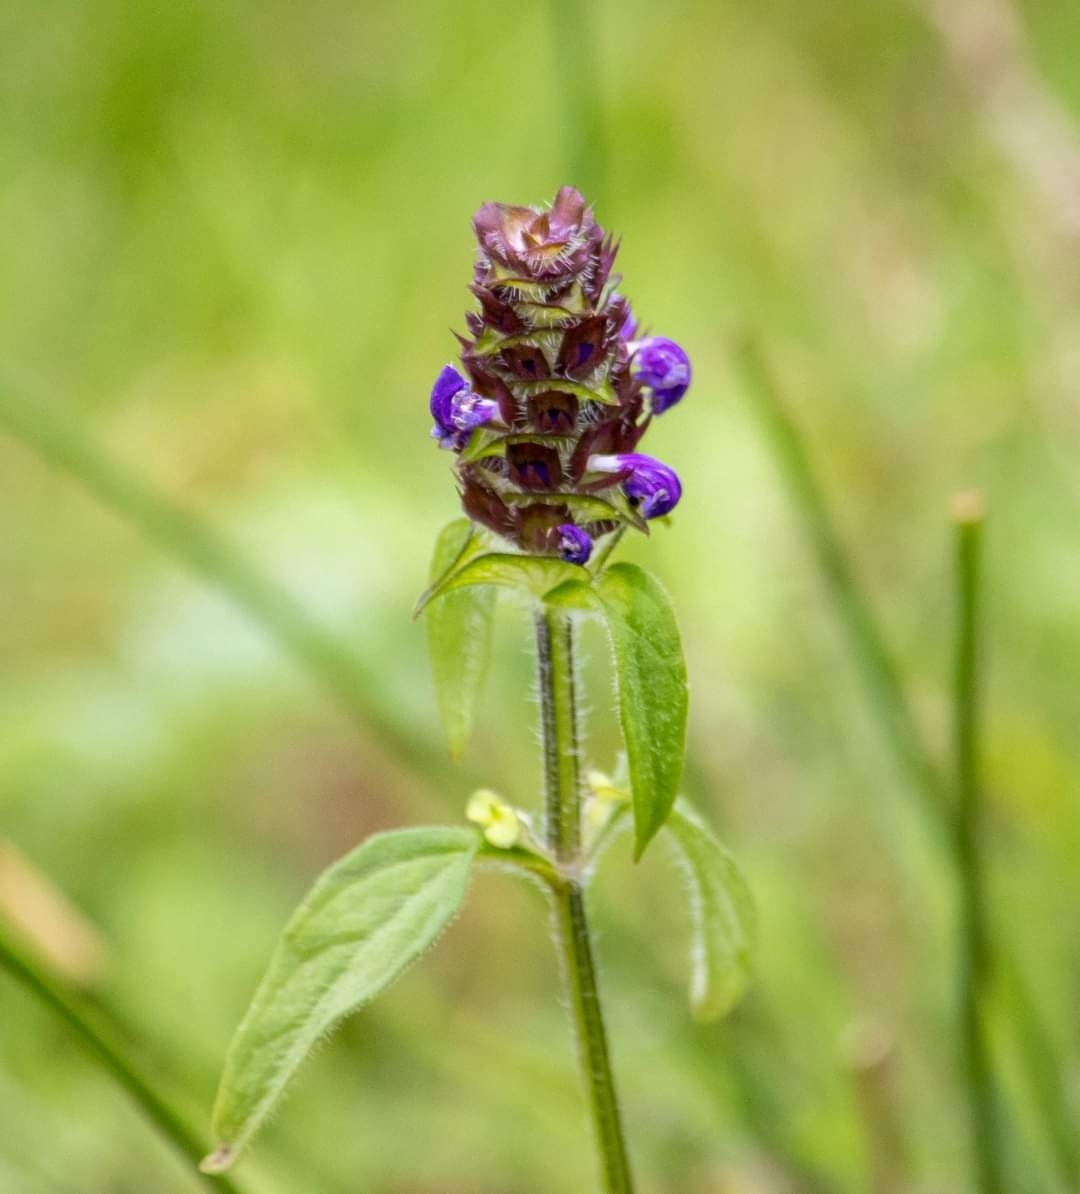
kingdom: Plantae
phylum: Tracheophyta
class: Magnoliopsida
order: Lamiales
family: Lamiaceae
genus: Prunella
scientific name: Prunella vulgaris
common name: Heal-all
